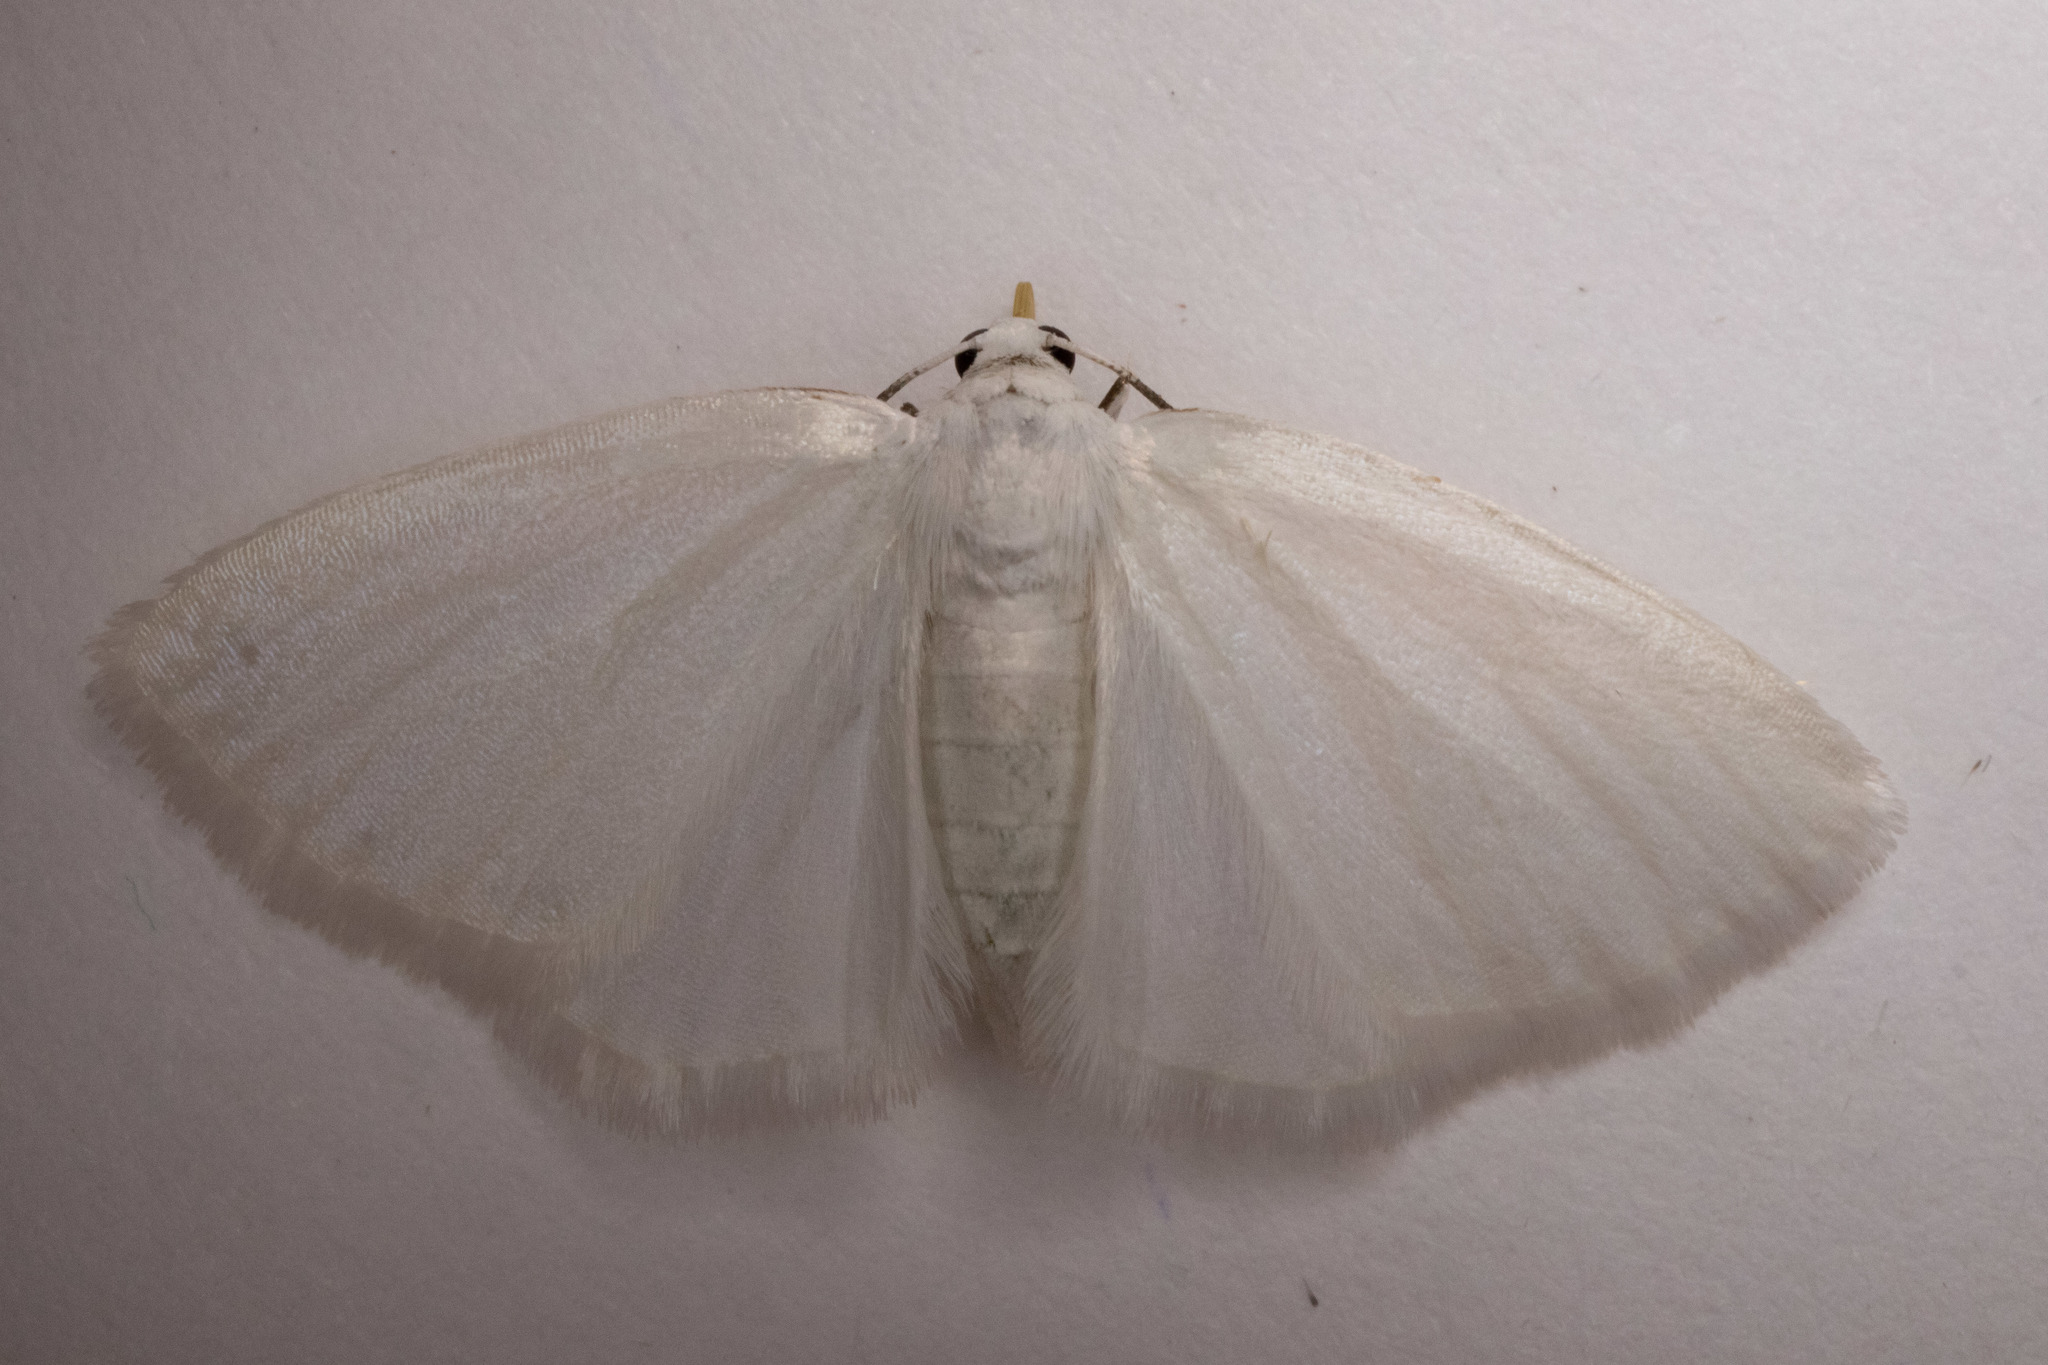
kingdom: Animalia
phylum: Arthropoda
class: Insecta
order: Lepidoptera
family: Geometridae
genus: Lomographa
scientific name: Lomographa vestaliata
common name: White spring moth
